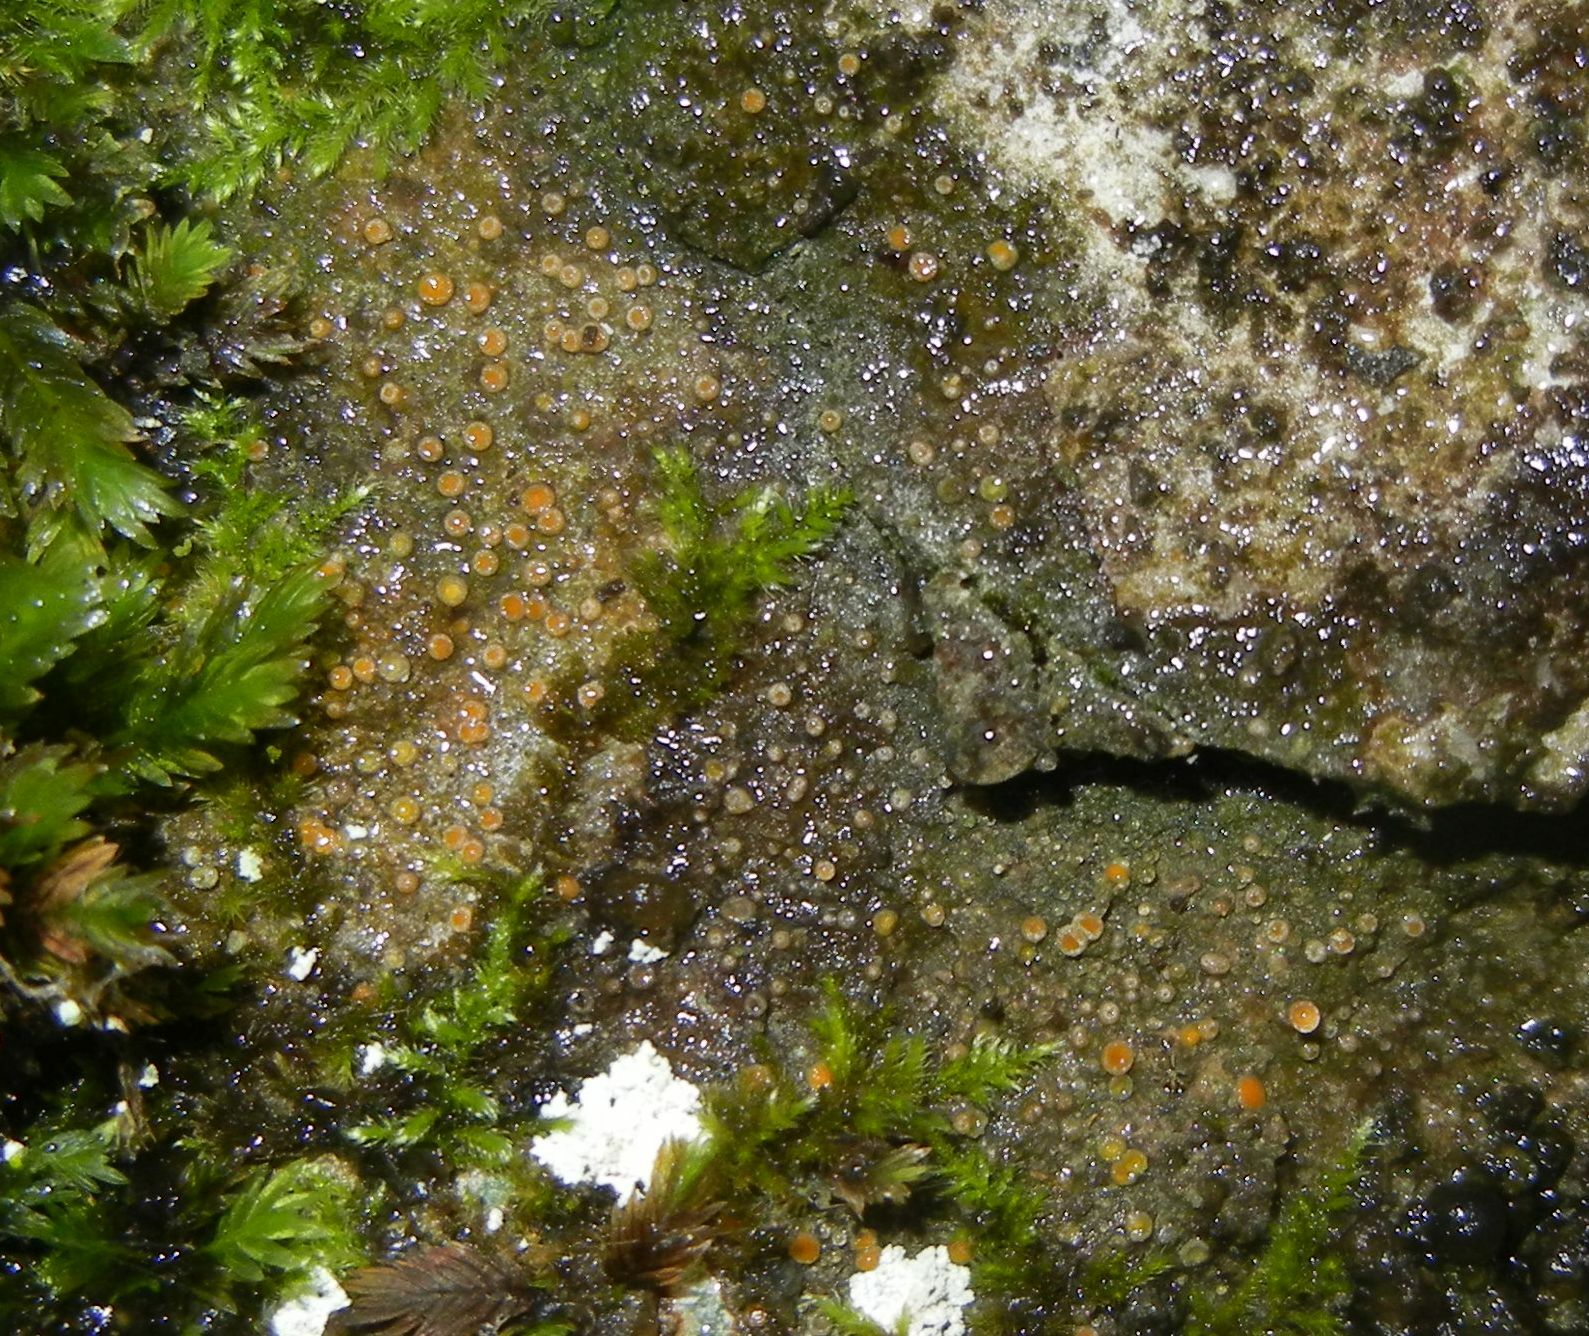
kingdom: Fungi
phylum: Ascomycota
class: Lecanoromycetes
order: Gyalectales
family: Gyalectaceae
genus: Gyalecta
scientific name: Gyalecta jenensis
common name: Rock dimple lichen
